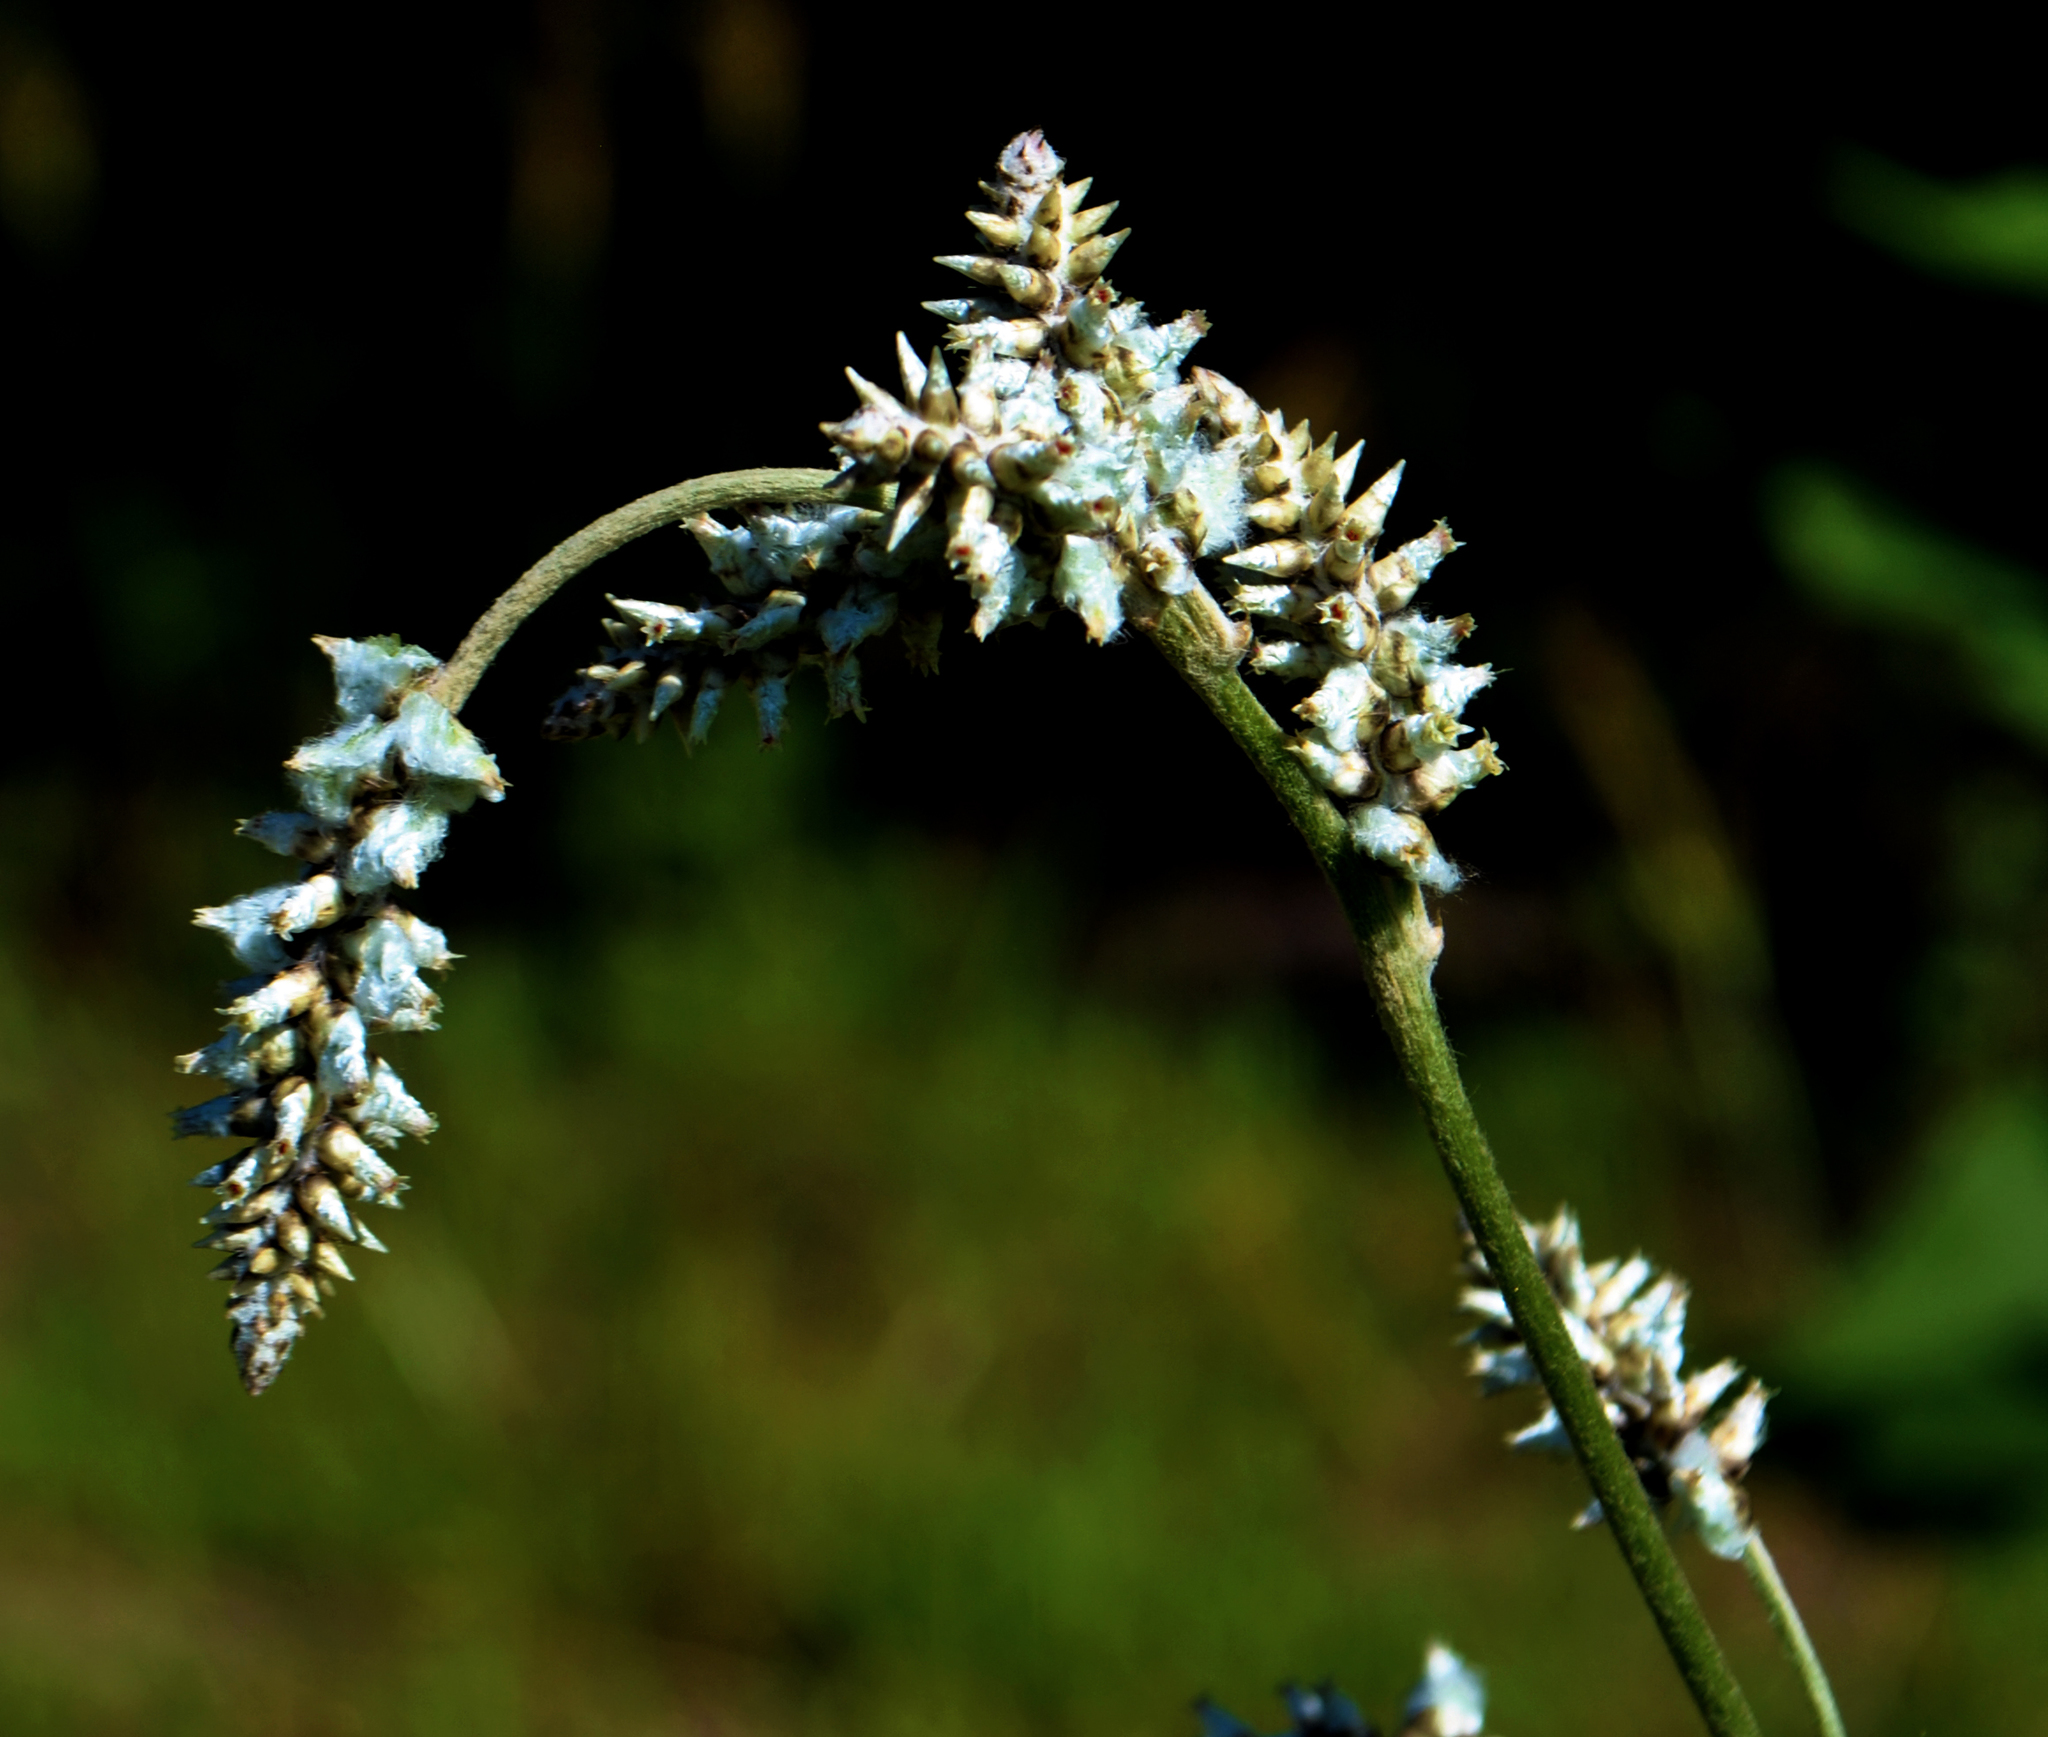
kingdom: Plantae
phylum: Tracheophyta
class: Magnoliopsida
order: Caryophyllales
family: Amaranthaceae
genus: Froelichia
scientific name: Froelichia floridana
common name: Florida snake-cotton
